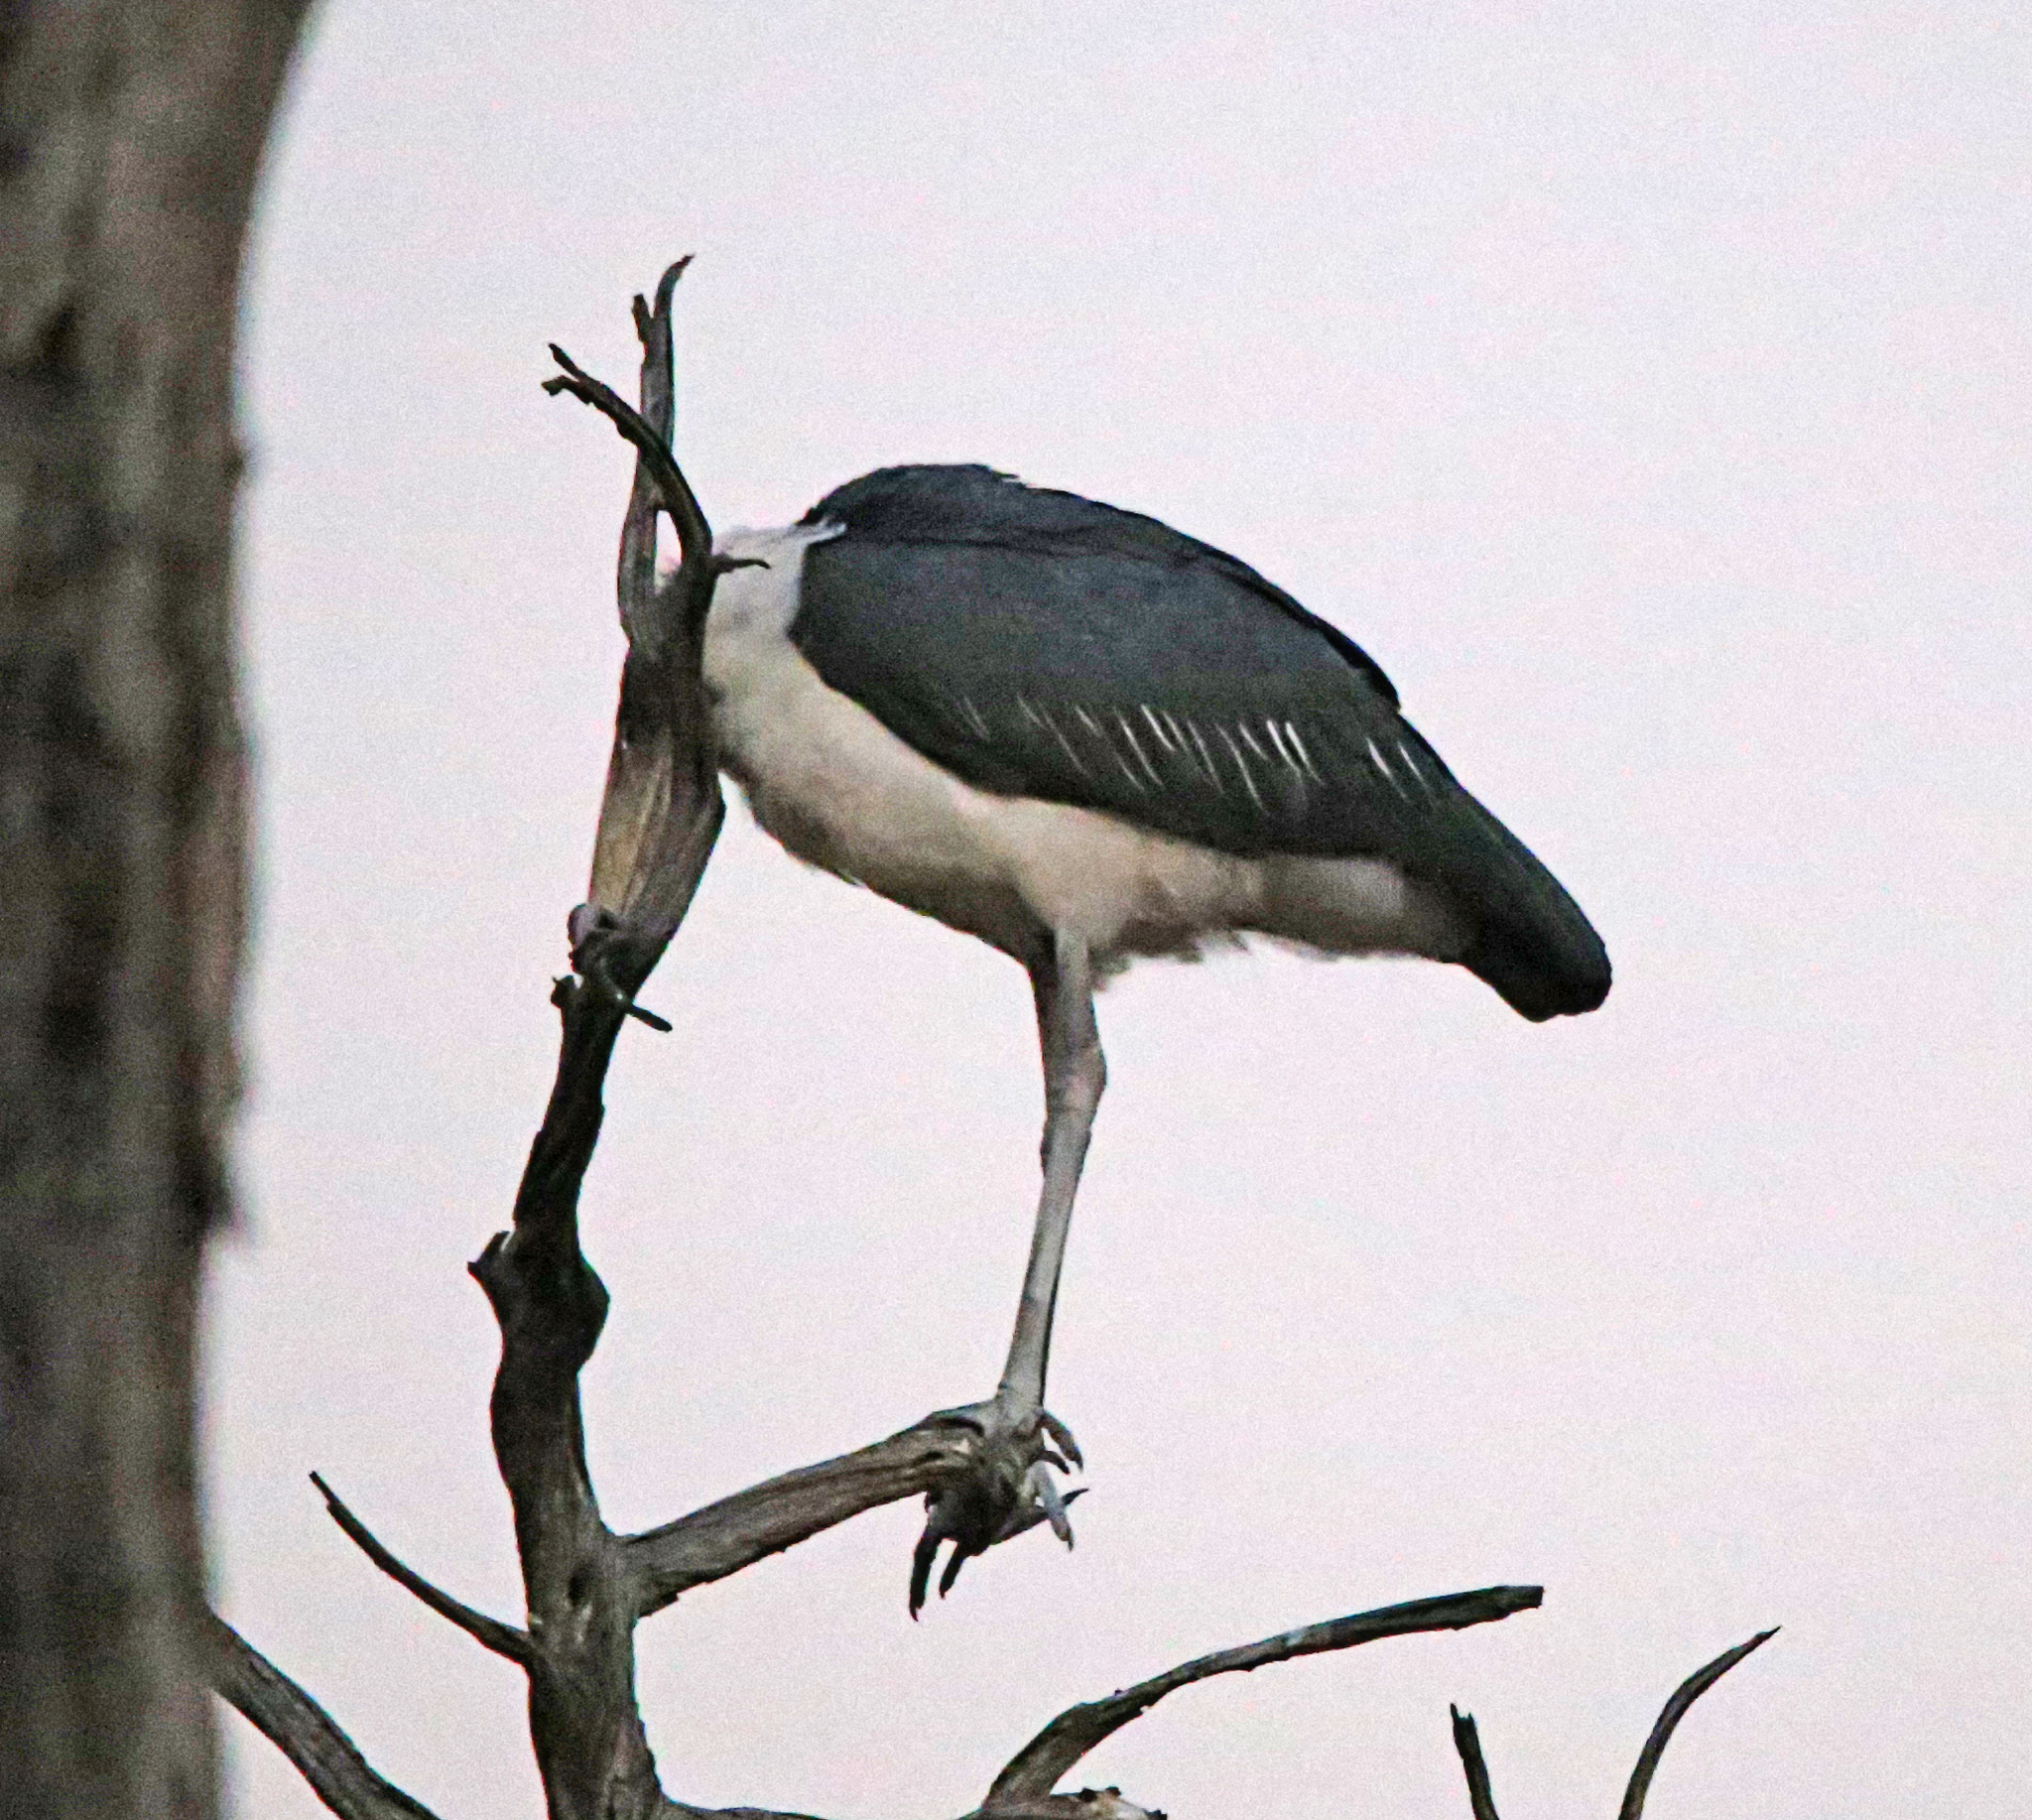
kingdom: Animalia
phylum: Chordata
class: Aves
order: Ciconiiformes
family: Ciconiidae
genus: Leptoptilos
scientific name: Leptoptilos crumenifer
